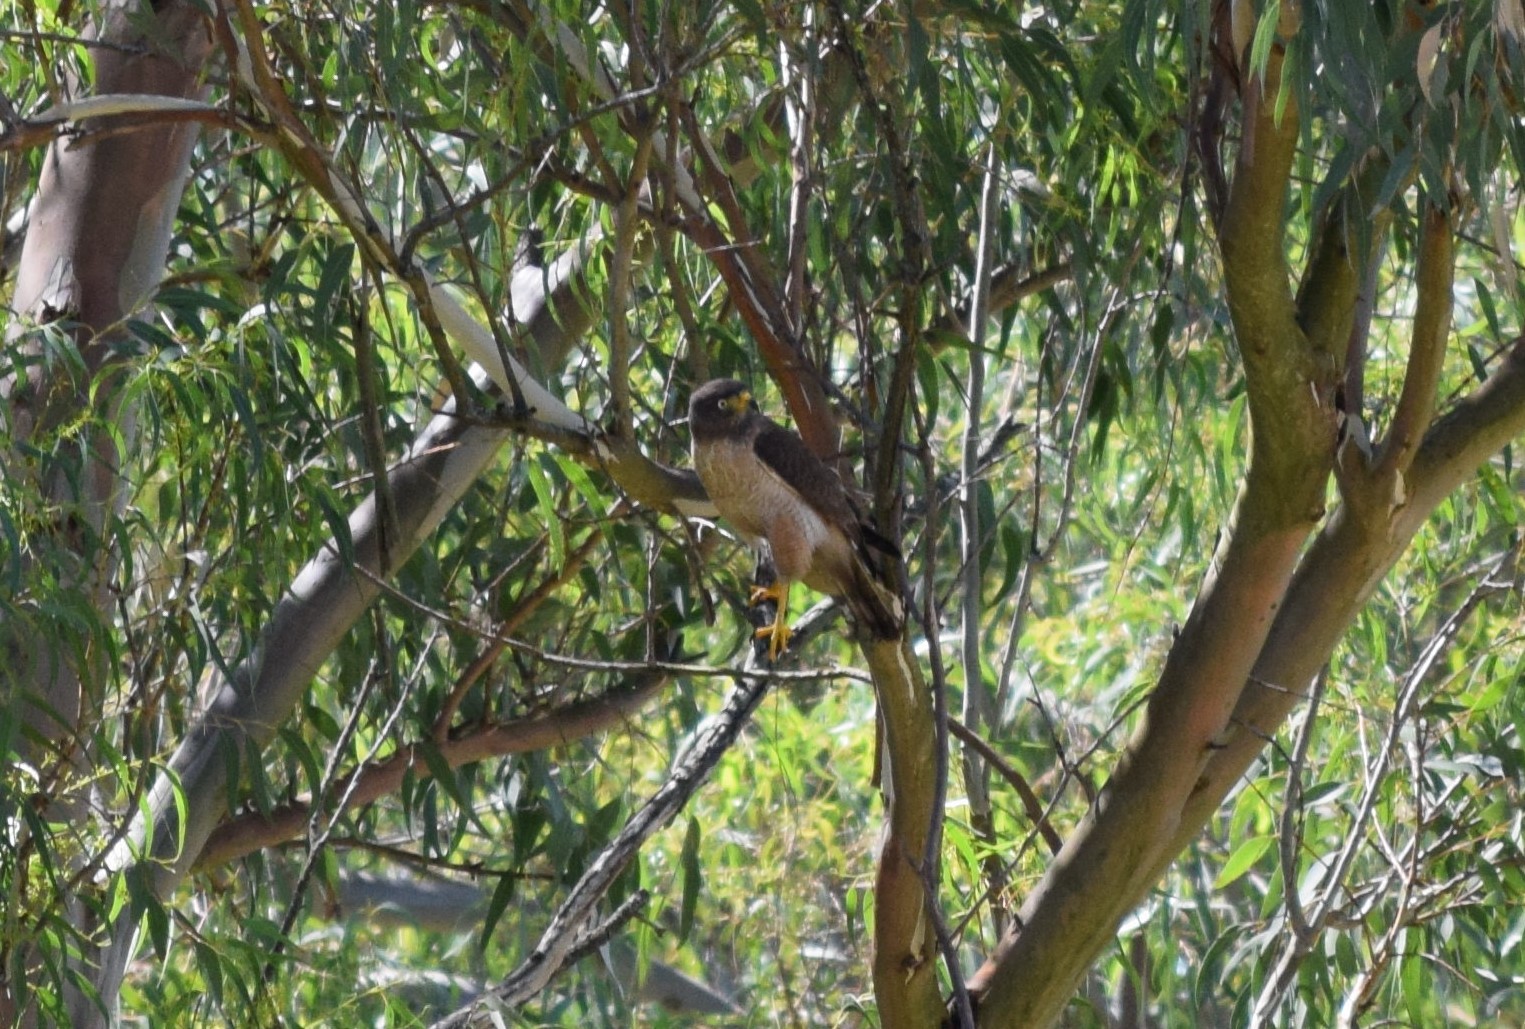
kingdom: Animalia
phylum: Chordata
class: Aves
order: Accipitriformes
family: Accipitridae
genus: Rupornis
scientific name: Rupornis magnirostris
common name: Roadside hawk
